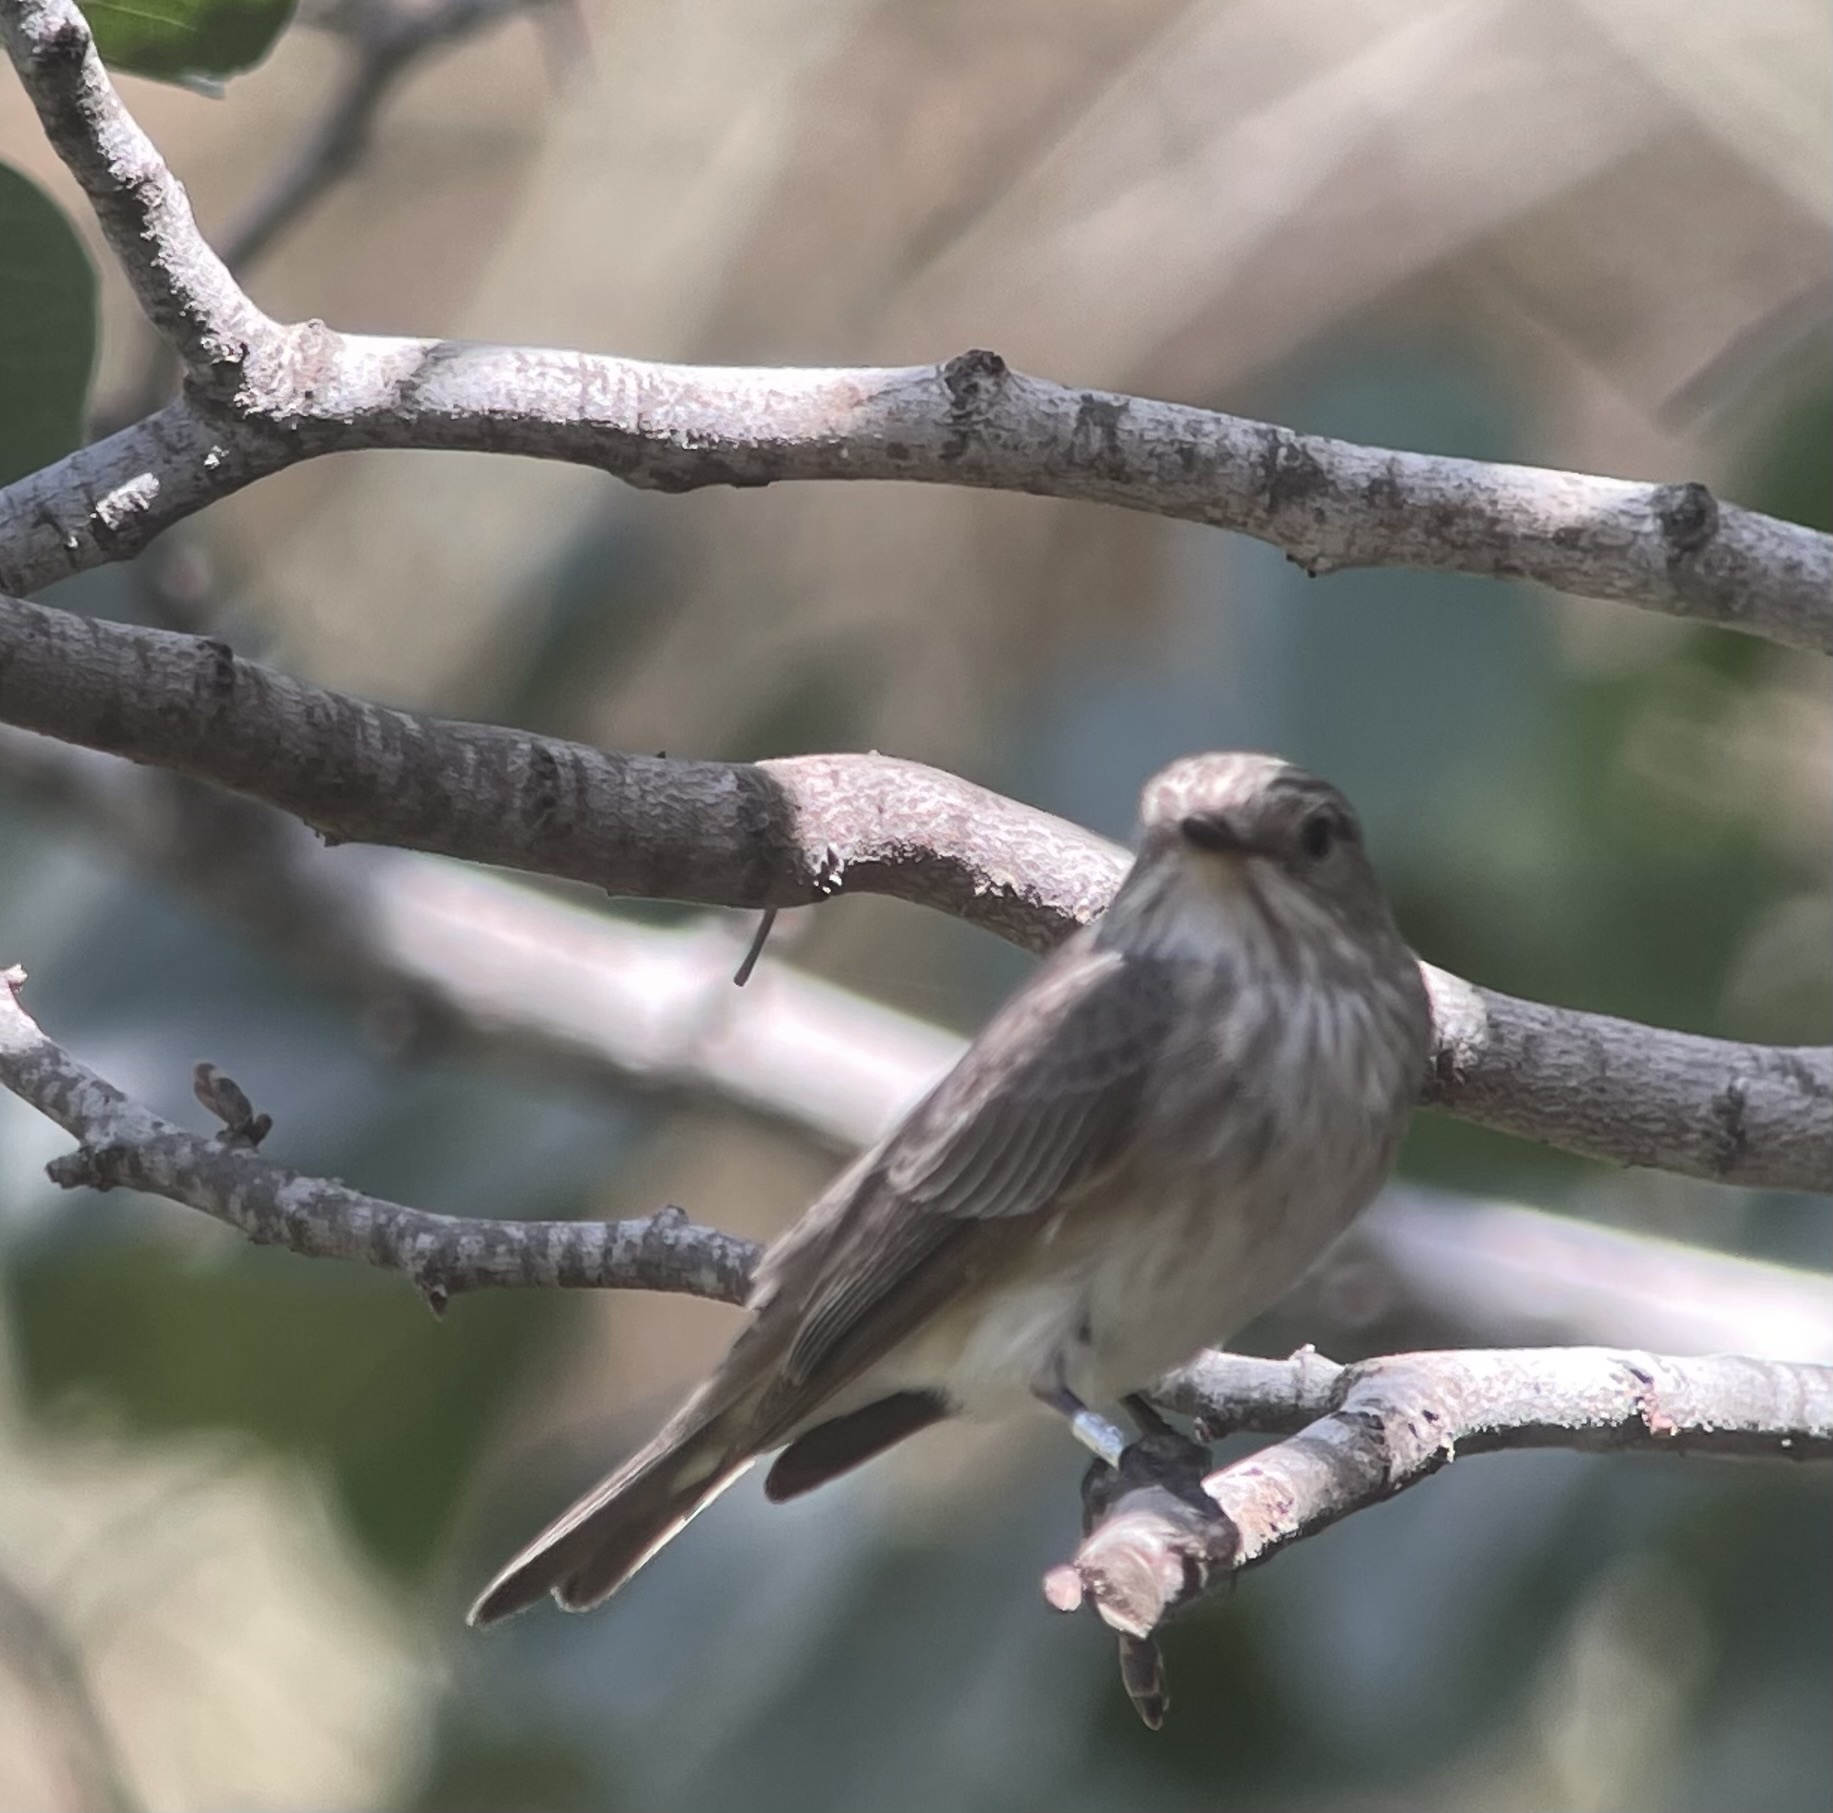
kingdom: Animalia
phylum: Chordata
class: Aves
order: Passeriformes
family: Muscicapidae
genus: Muscicapa
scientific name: Muscicapa striata
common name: Spotted flycatcher
